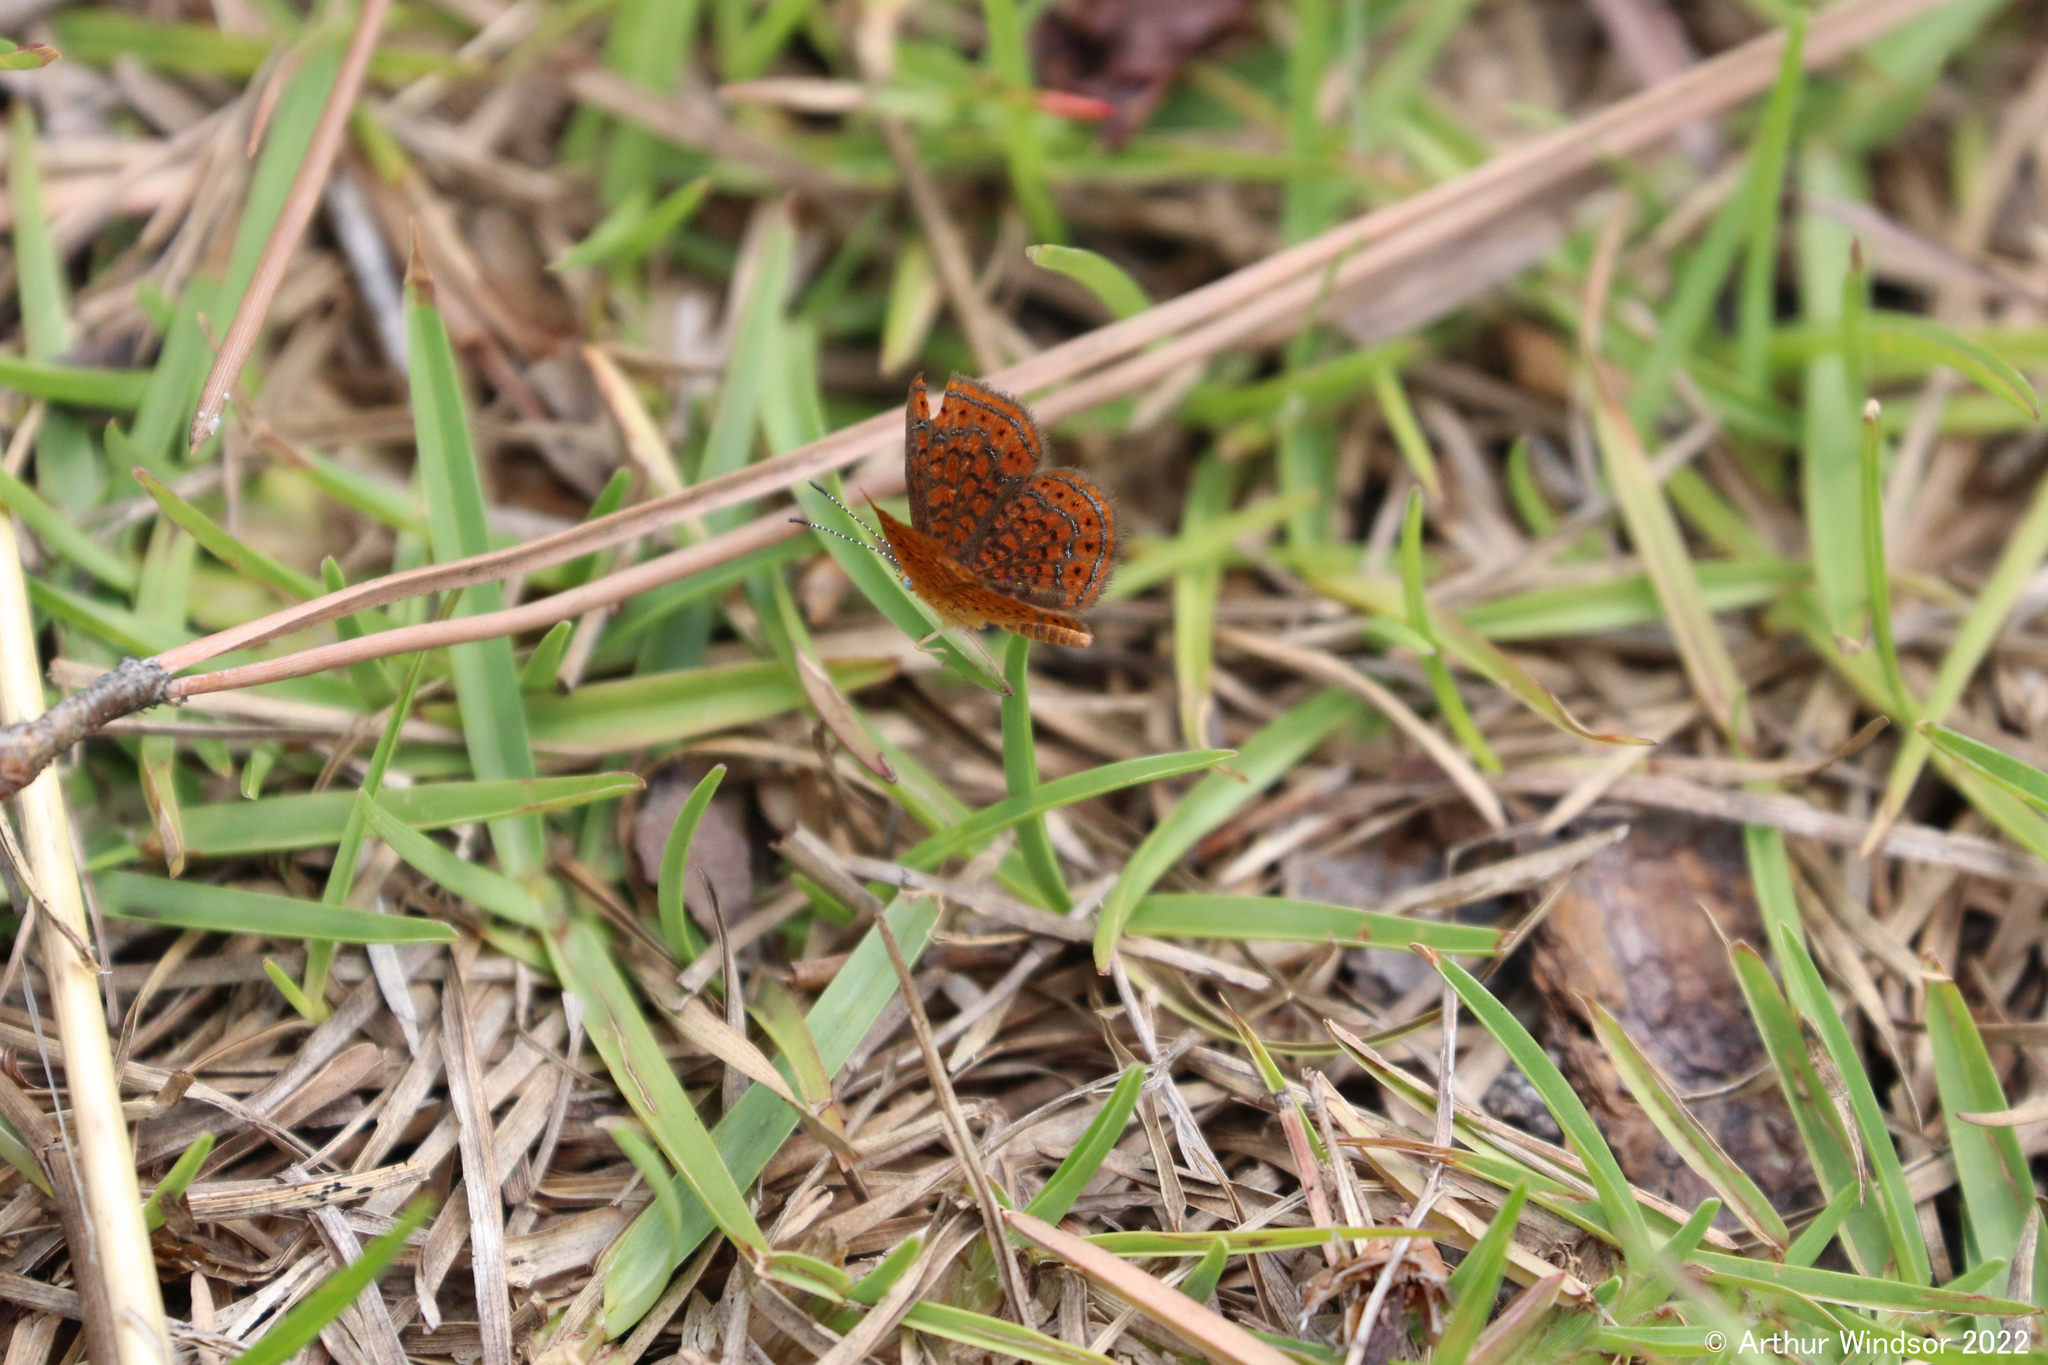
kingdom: Animalia
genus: Calephelis
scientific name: Calephelis virginiensis
